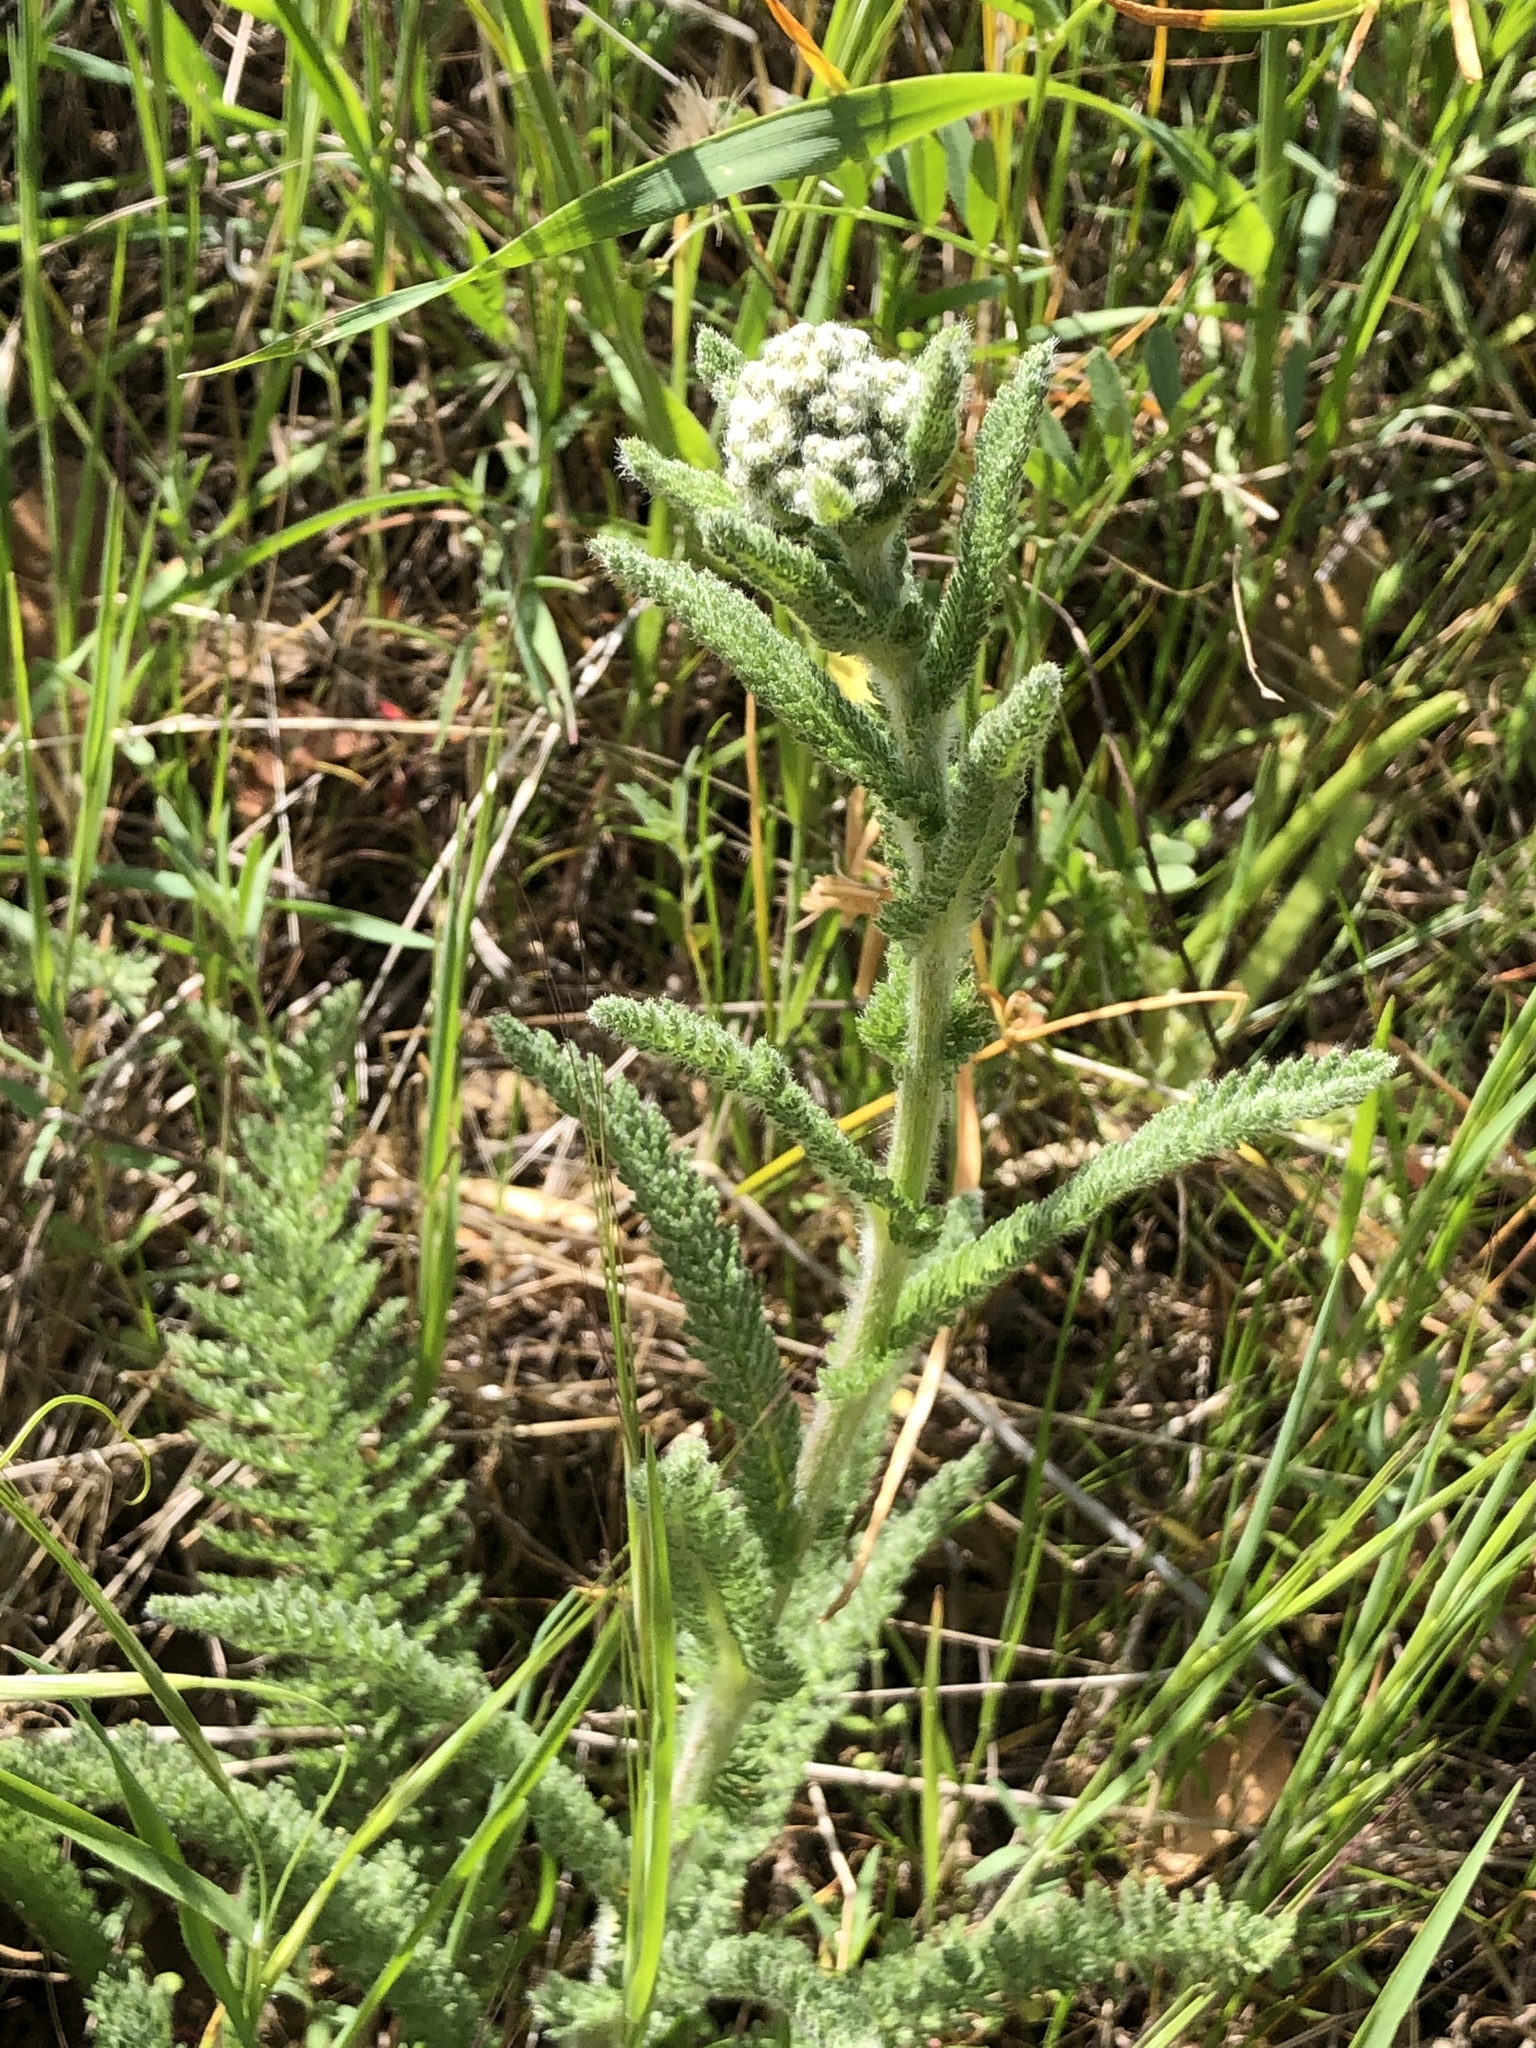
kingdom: Plantae
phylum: Tracheophyta
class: Magnoliopsida
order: Asterales
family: Asteraceae
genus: Achillea
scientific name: Achillea millefolium
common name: Yarrow
